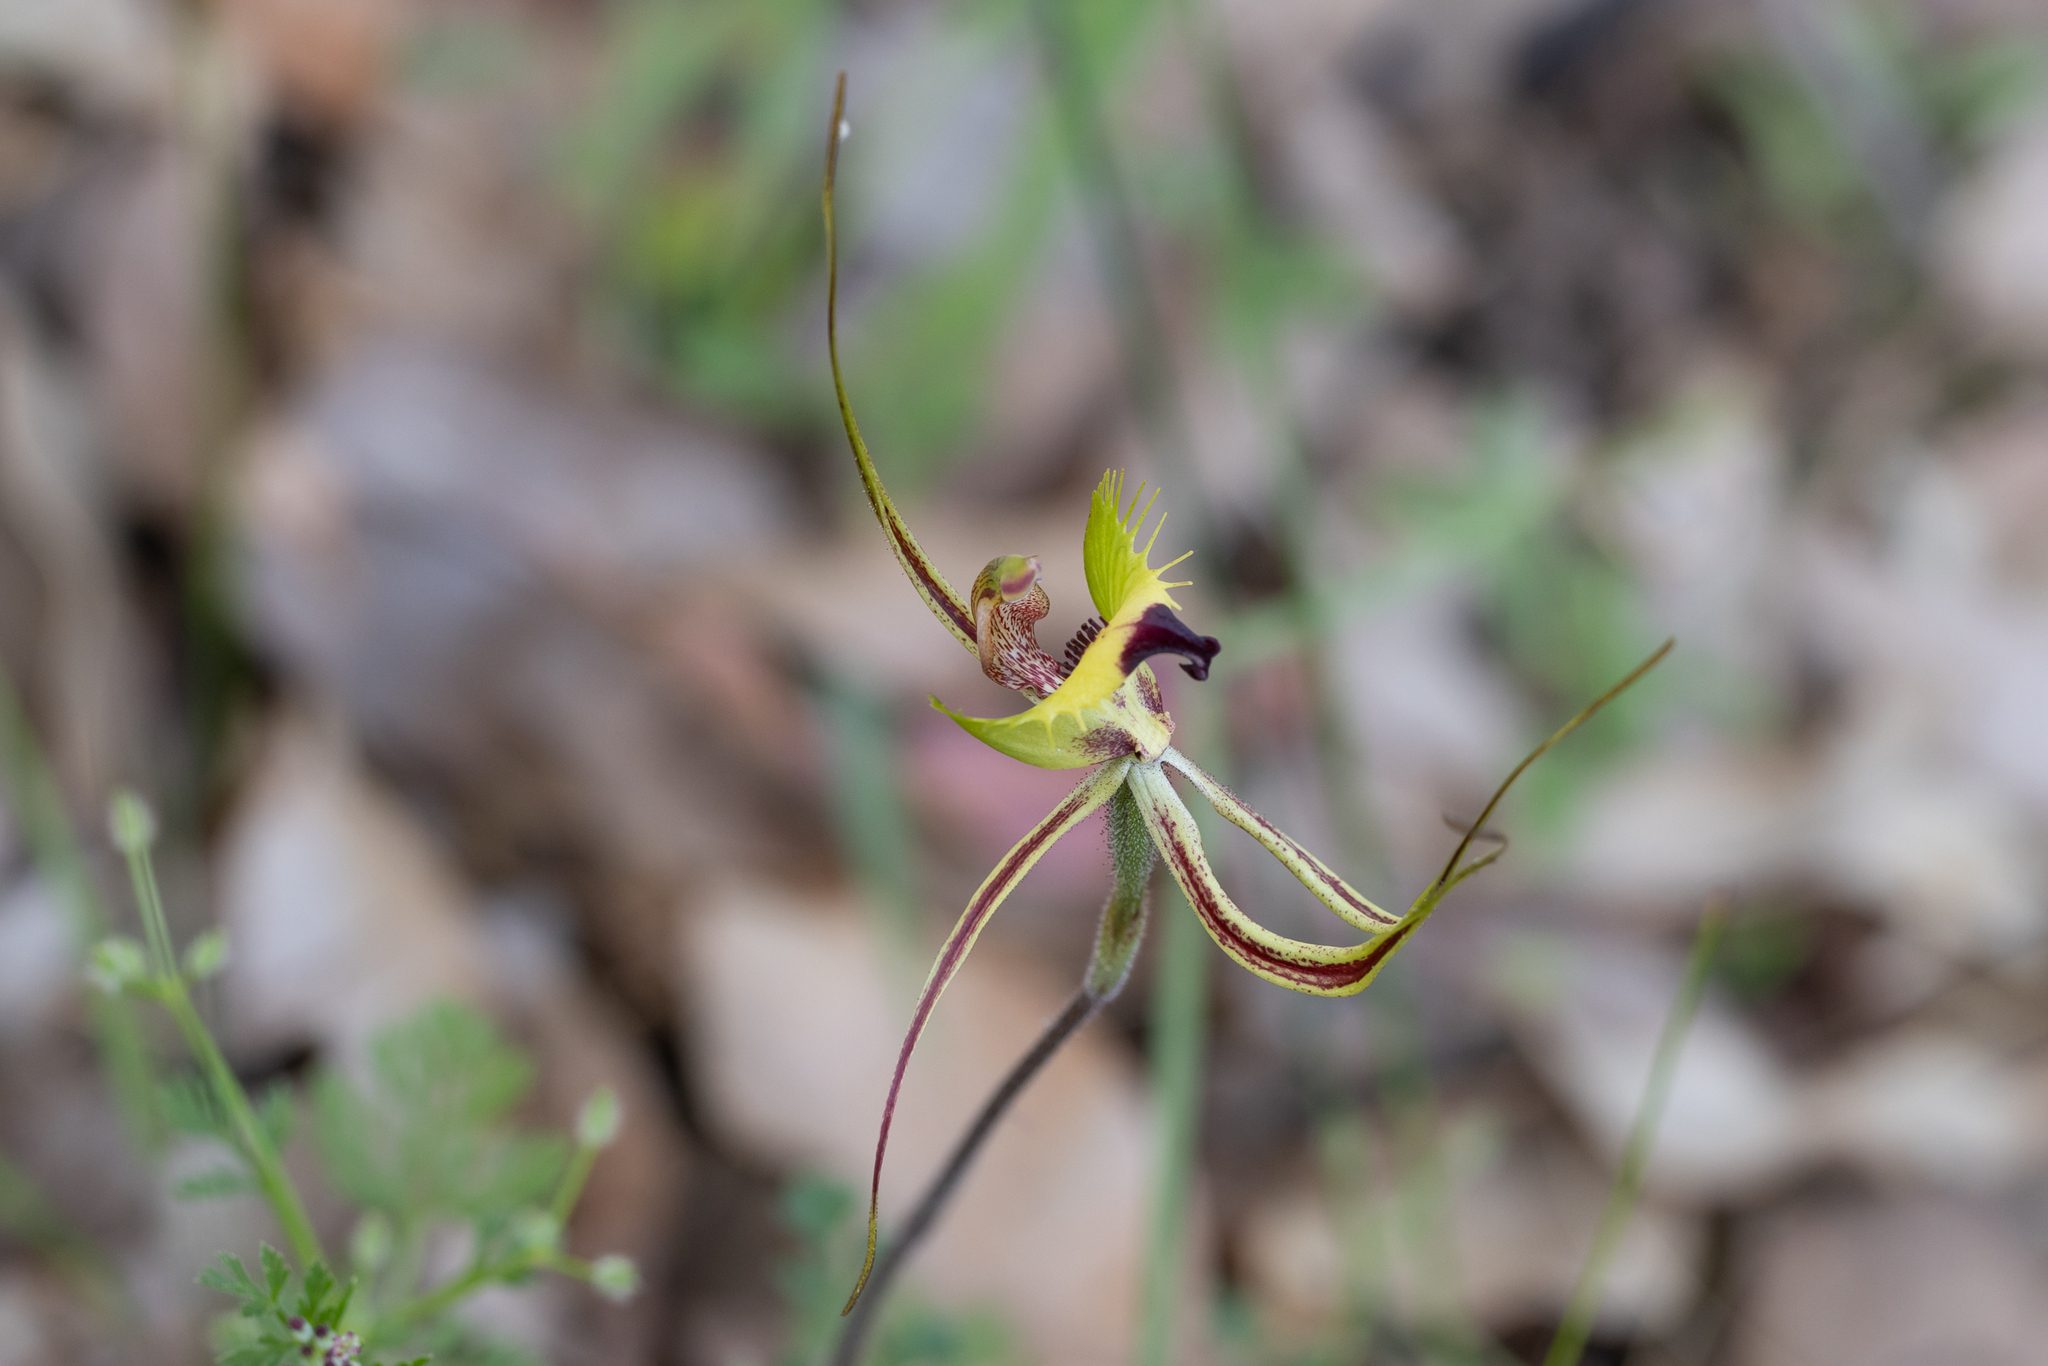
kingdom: Plantae
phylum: Tracheophyta
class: Liliopsida
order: Asparagales
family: Orchidaceae
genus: Caladenia
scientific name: Caladenia falcata
